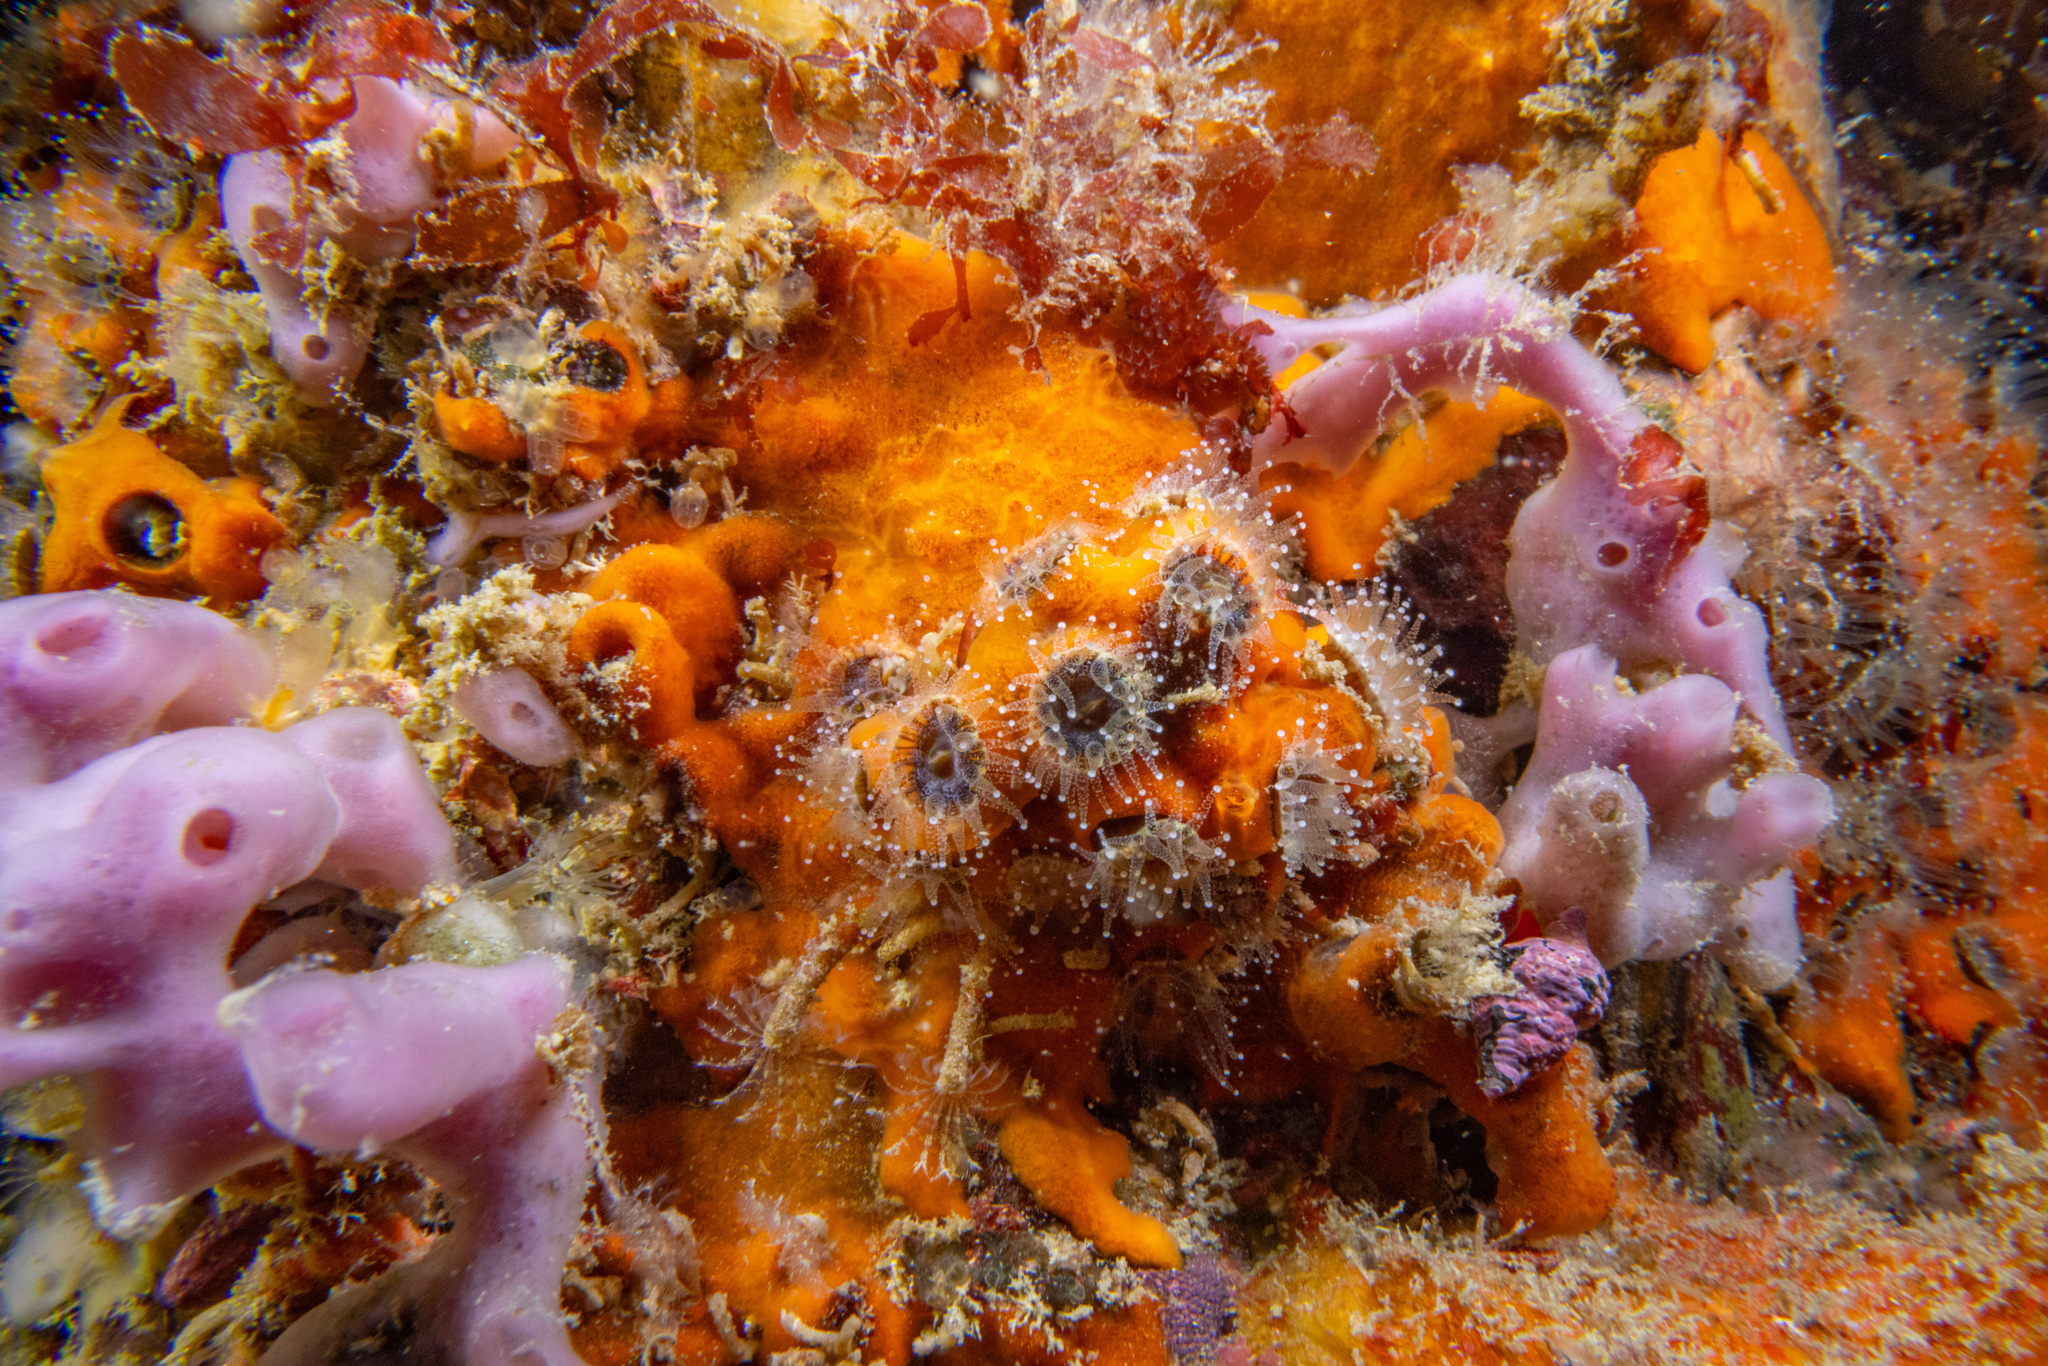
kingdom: Animalia
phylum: Cnidaria
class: Anthozoa
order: Scleractinia
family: Rhizangiidae
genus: Culicia
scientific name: Culicia rubeola
